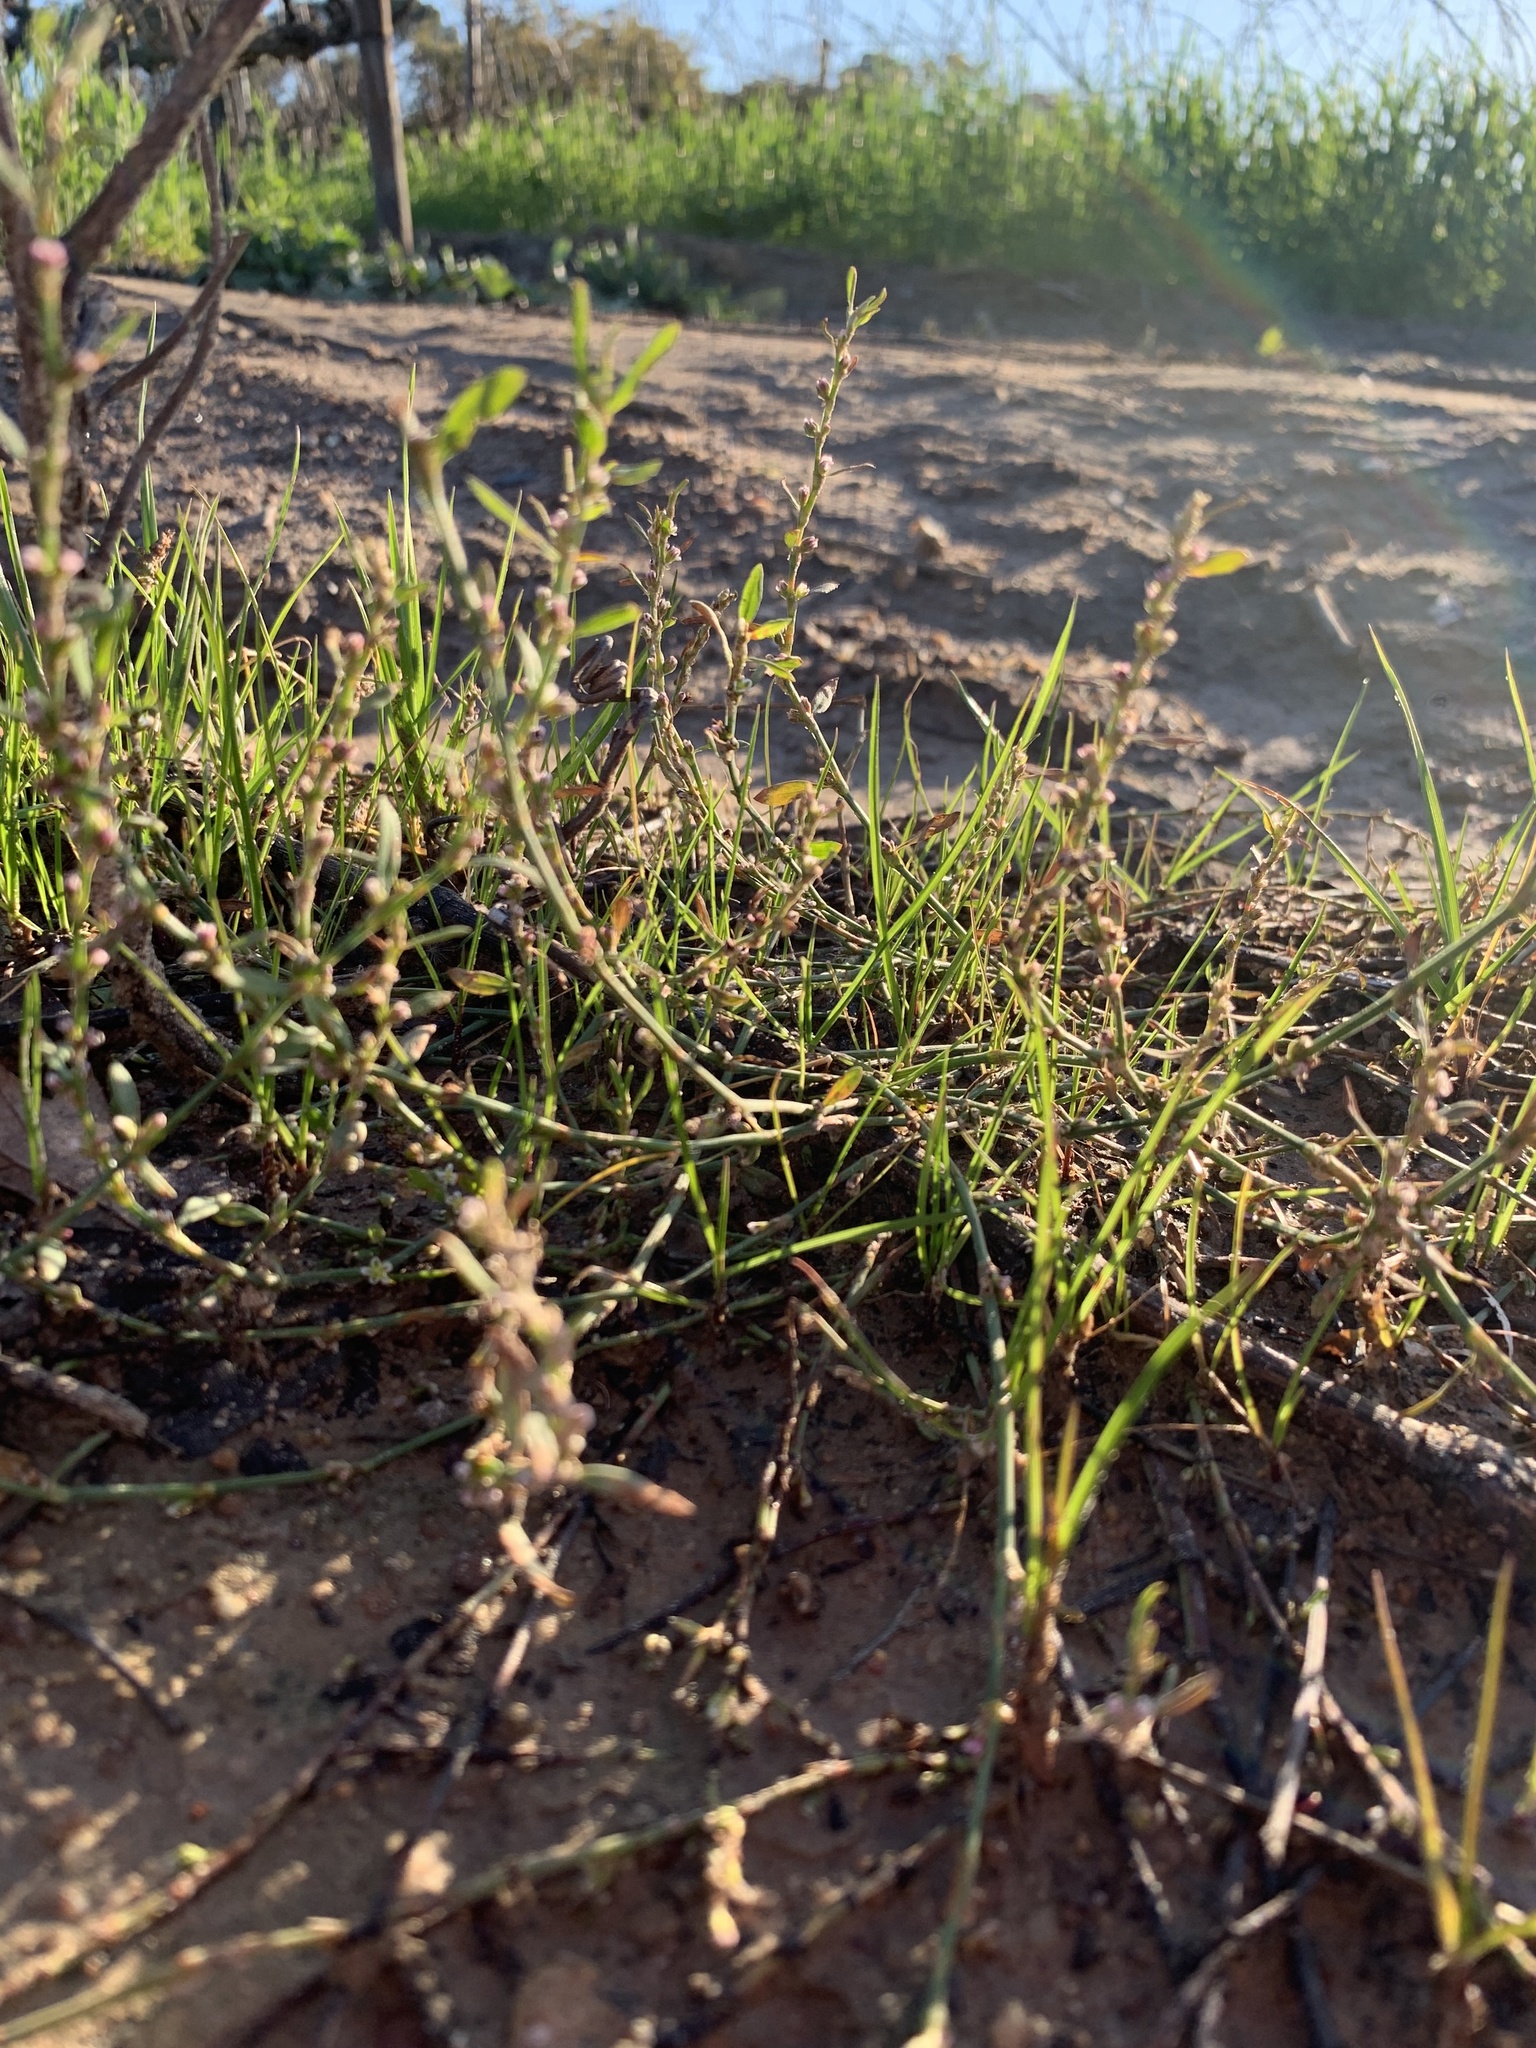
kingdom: Plantae
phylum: Tracheophyta
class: Magnoliopsida
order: Caryophyllales
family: Polygonaceae
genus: Polygonum
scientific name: Polygonum aviculare
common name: Prostrate knotweed
